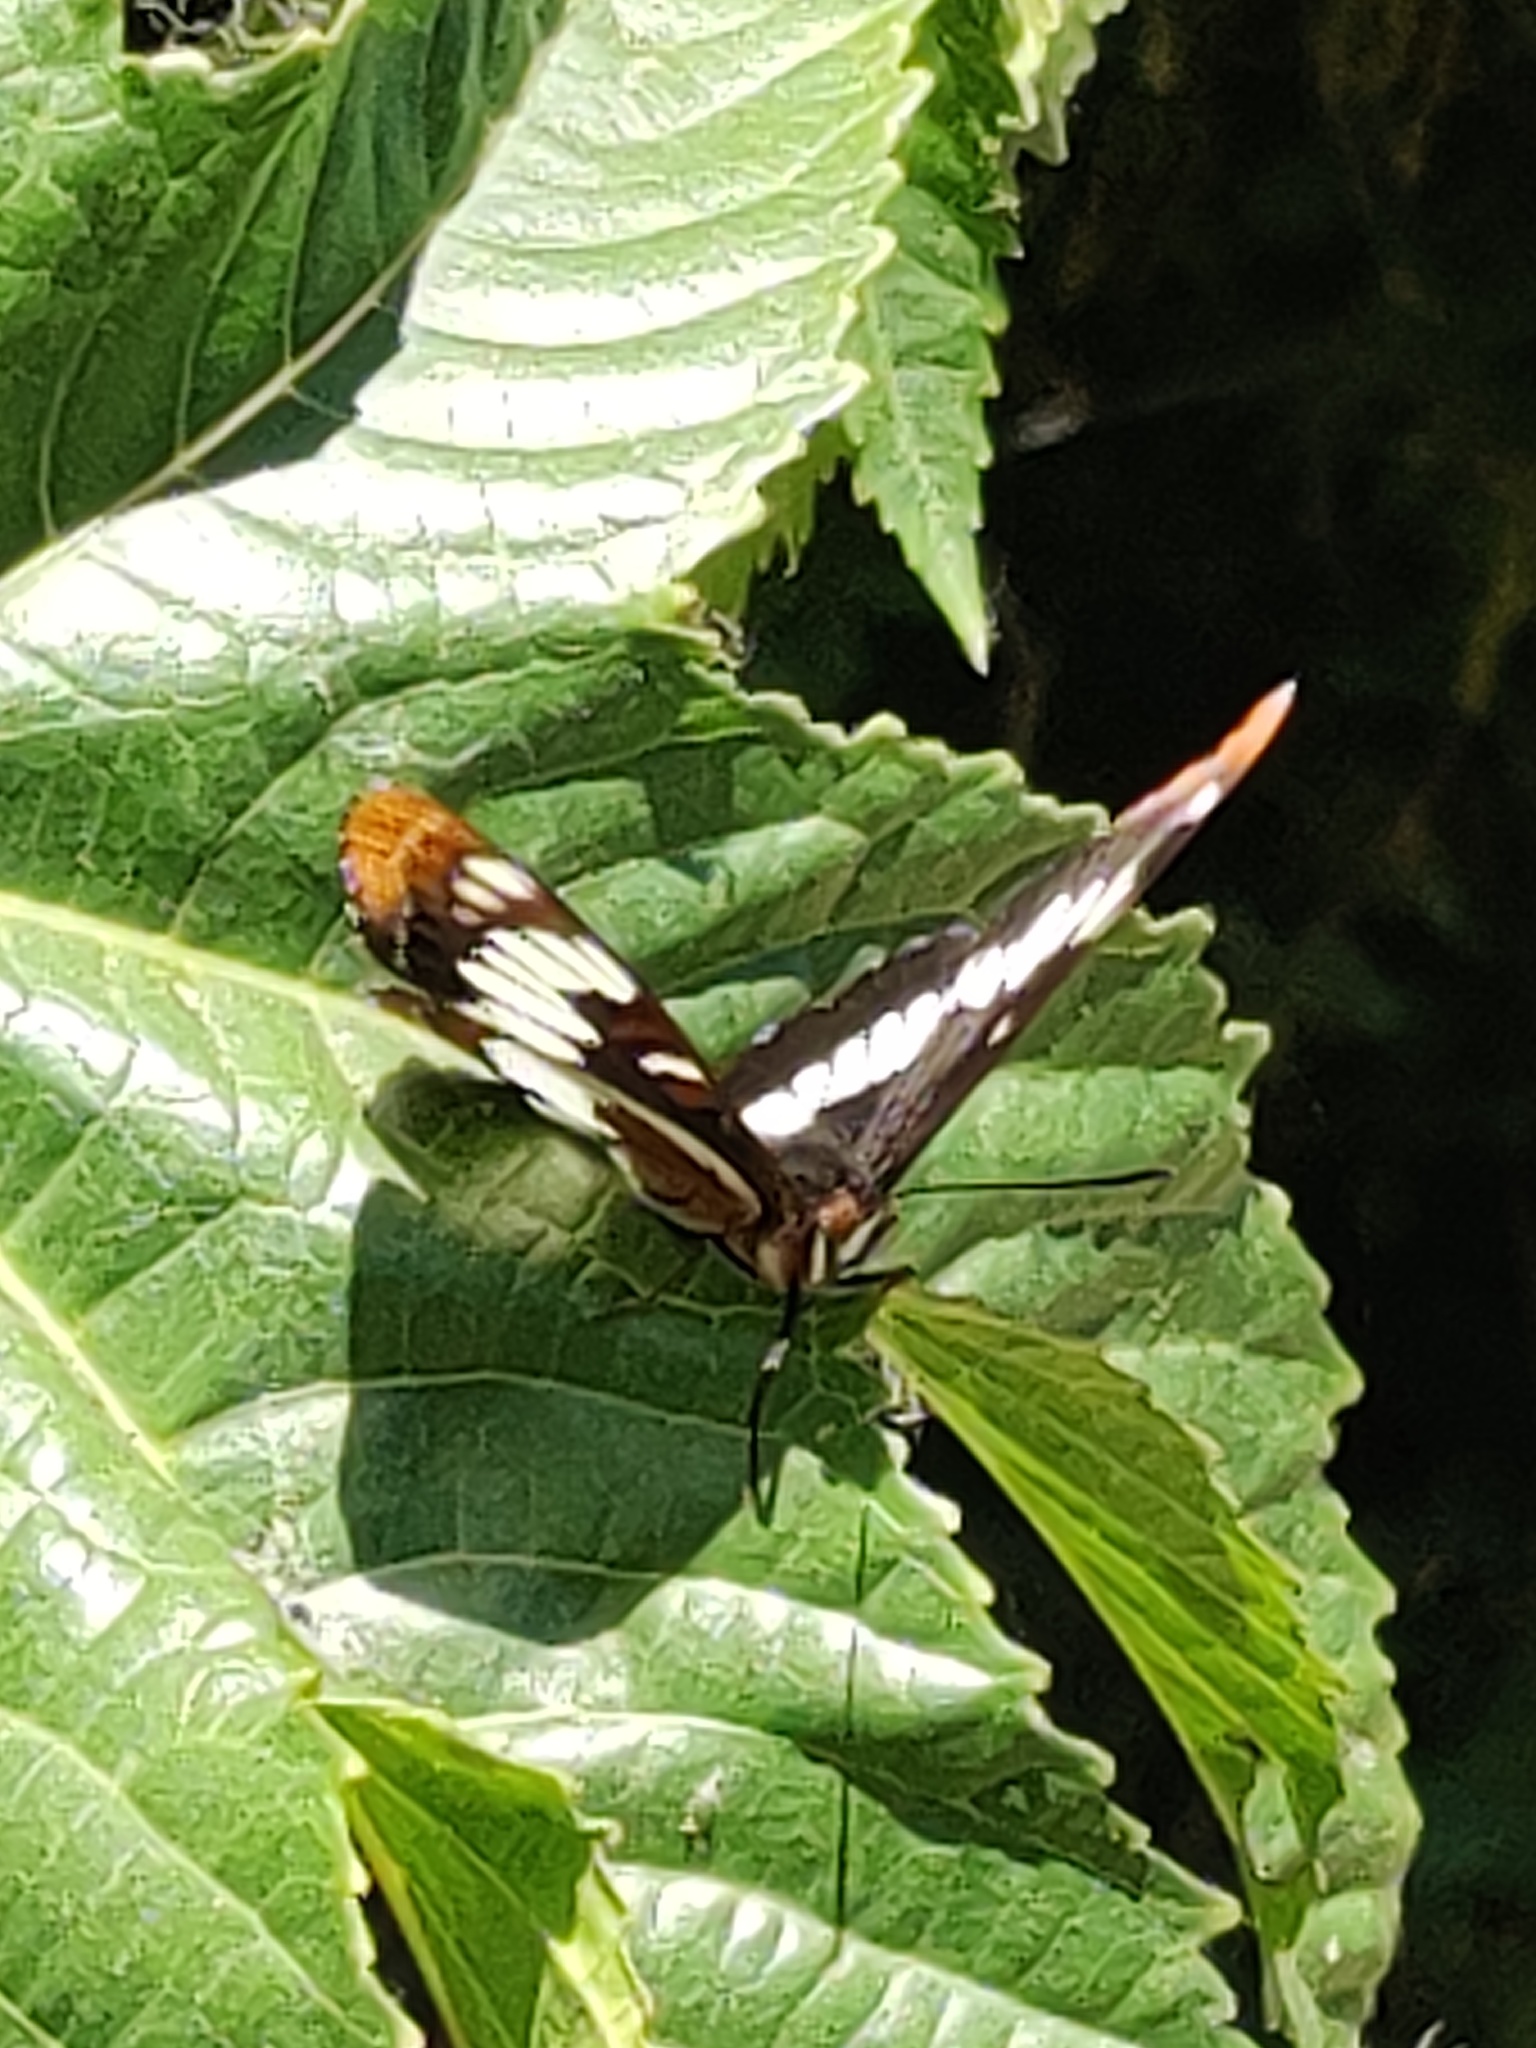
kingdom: Animalia
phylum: Arthropoda
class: Insecta
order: Lepidoptera
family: Nymphalidae
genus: Limenitis
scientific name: Limenitis lorquini
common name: Lorquin's admiral
